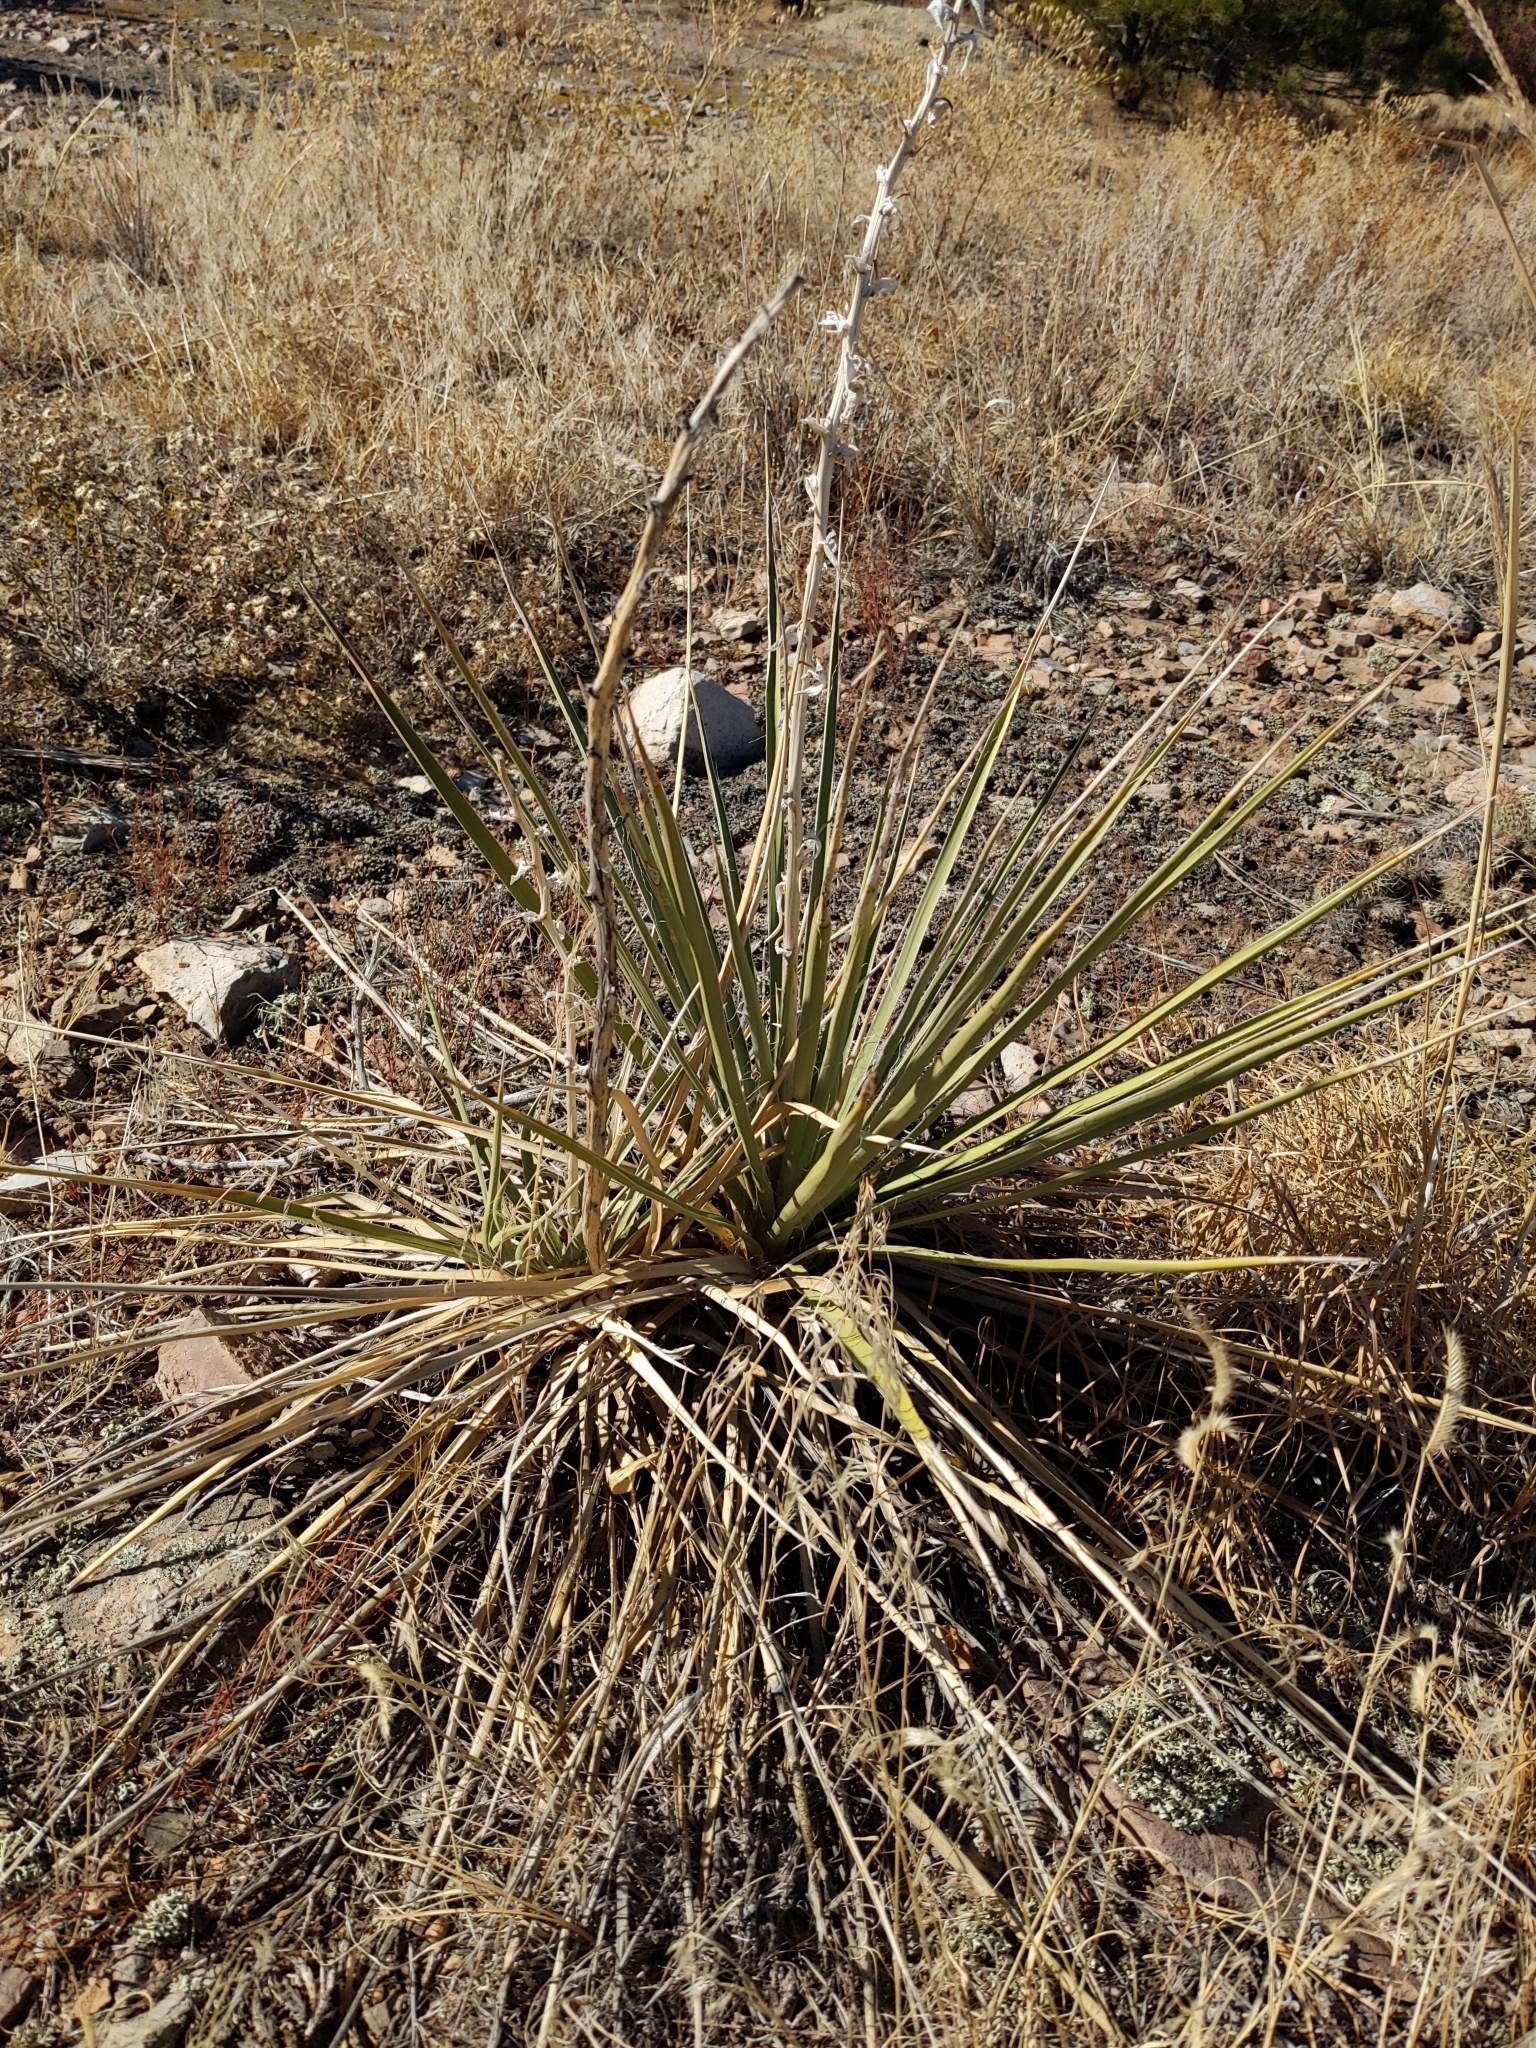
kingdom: Plantae
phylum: Tracheophyta
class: Liliopsida
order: Asparagales
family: Asparagaceae
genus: Yucca
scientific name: Yucca glauca
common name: Great plains yucca
